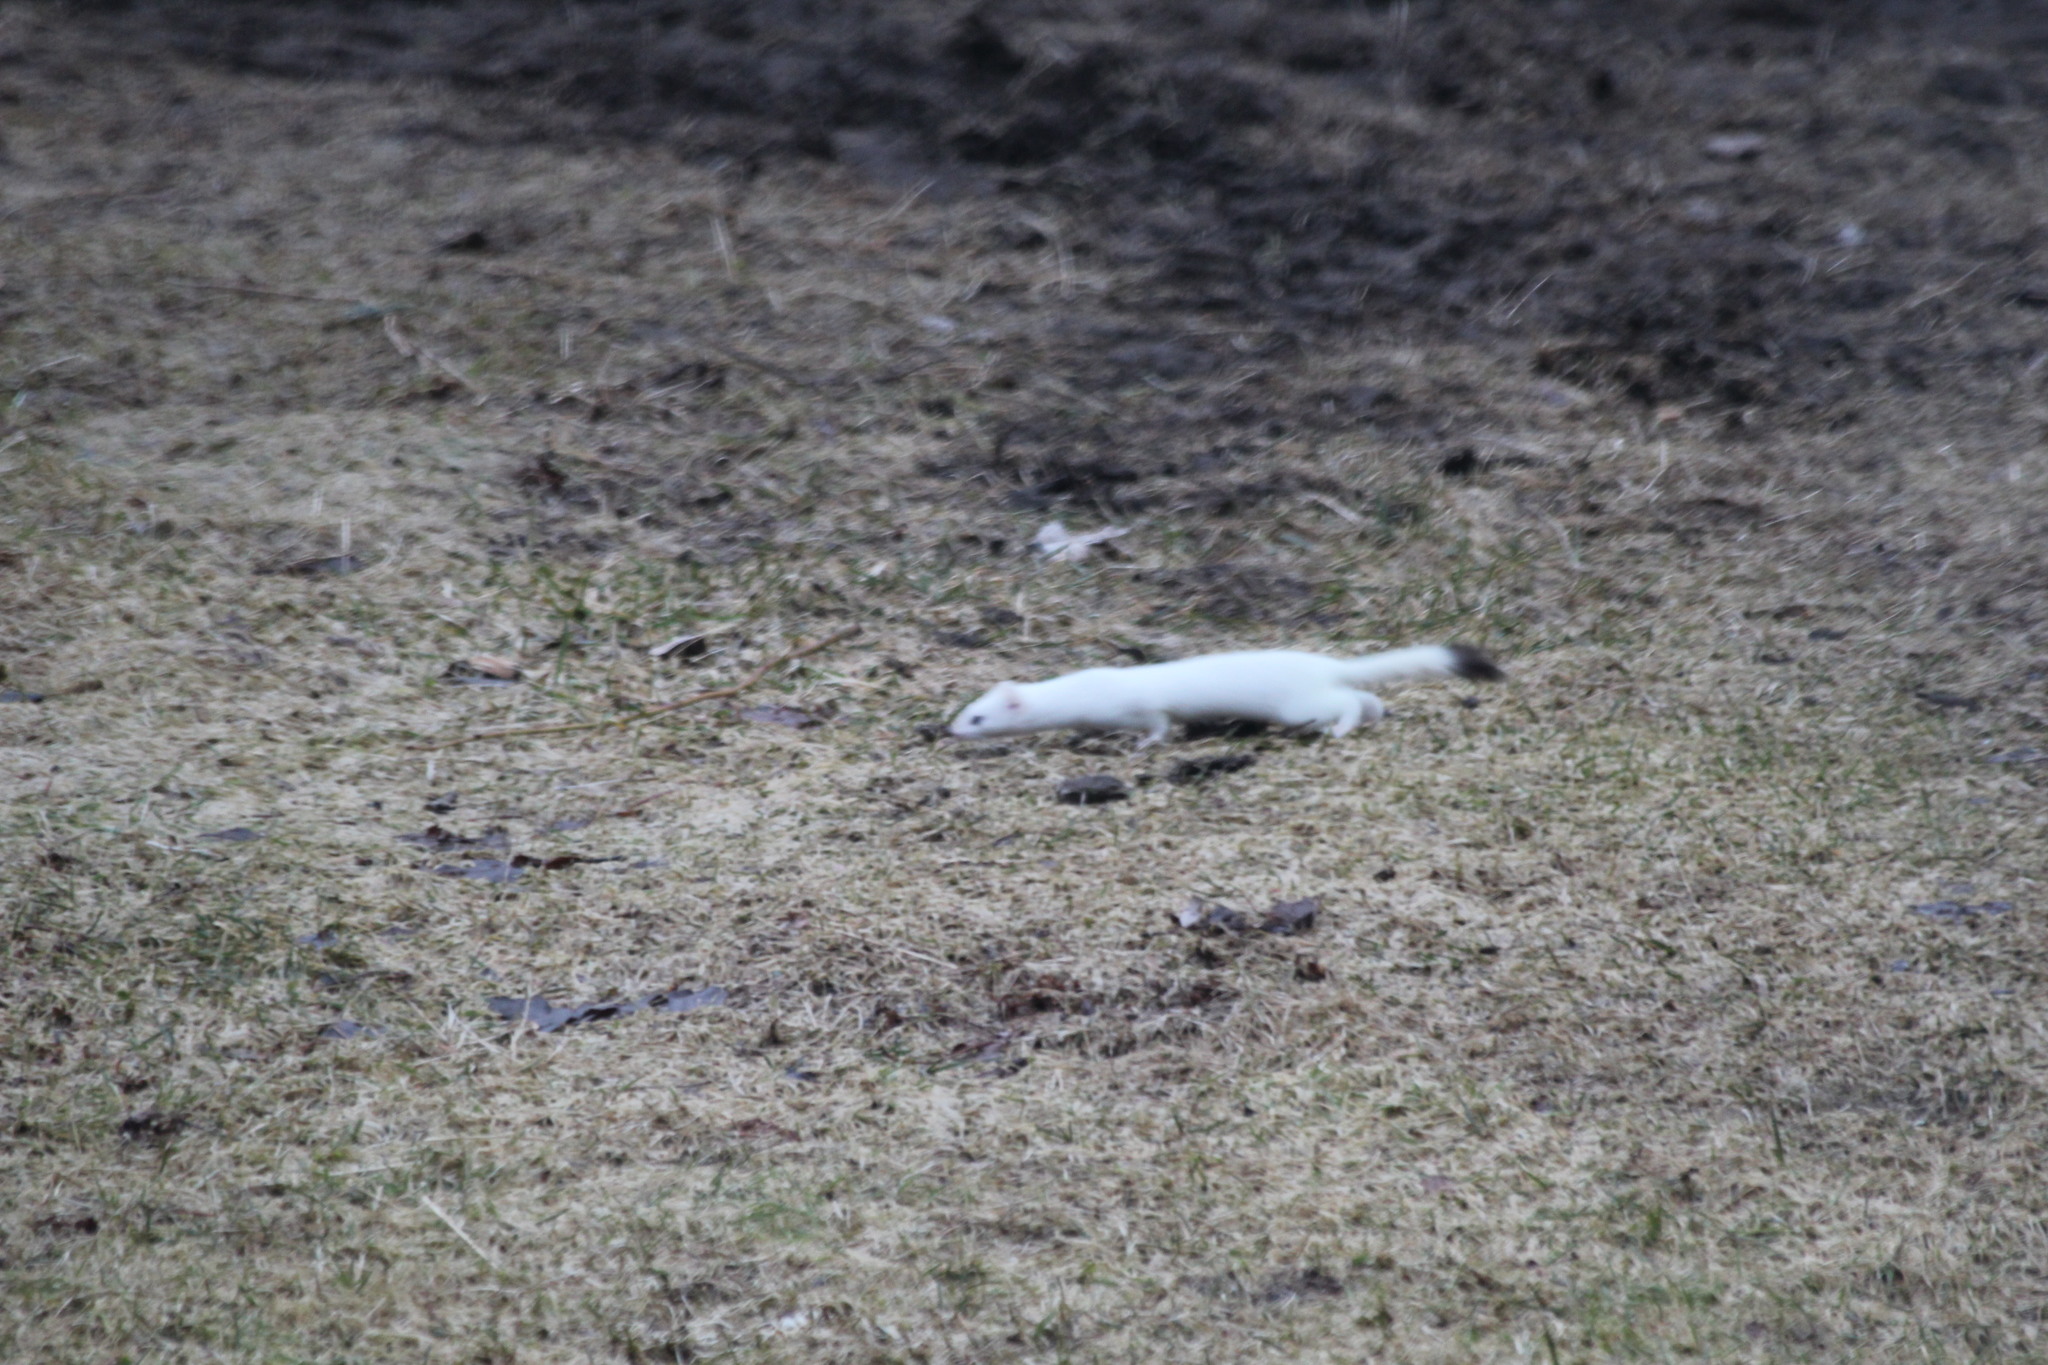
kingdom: Animalia
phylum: Chordata
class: Mammalia
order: Carnivora
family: Mustelidae
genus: Mustela
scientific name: Mustela erminea
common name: Stoat
